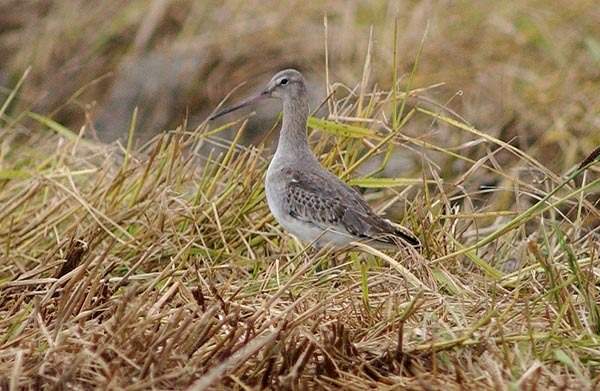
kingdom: Animalia
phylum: Chordata
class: Aves
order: Charadriiformes
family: Scolopacidae
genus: Limosa
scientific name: Limosa limosa
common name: Black-tailed godwit
